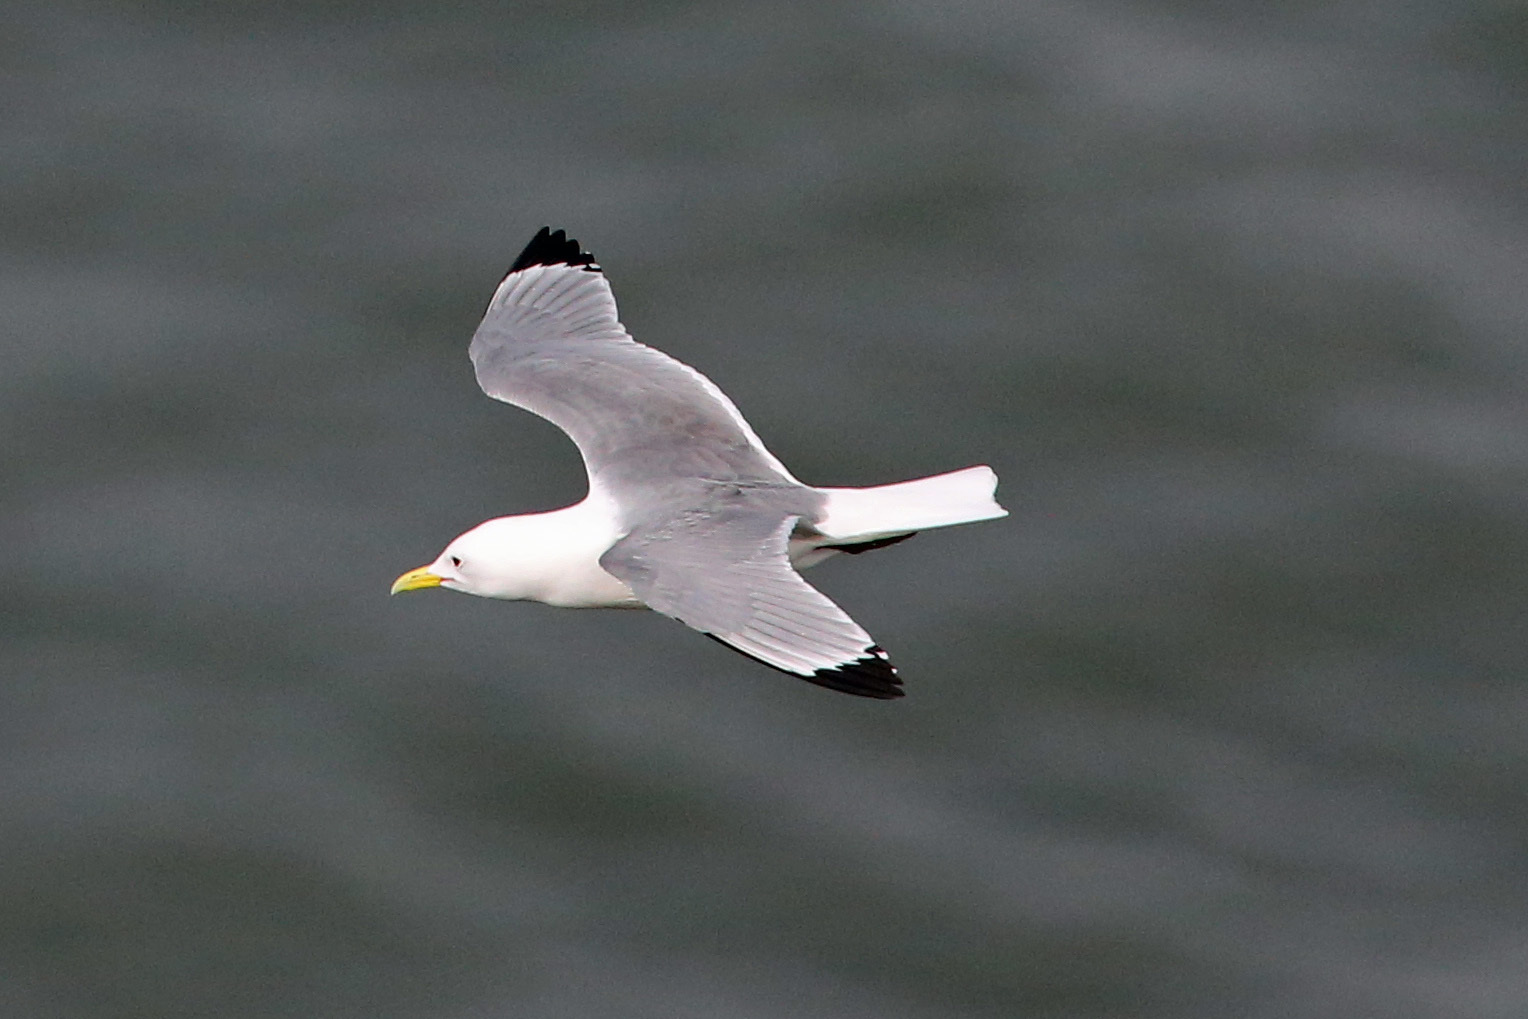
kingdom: Animalia
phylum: Chordata
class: Aves
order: Charadriiformes
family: Laridae
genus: Rissa
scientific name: Rissa tridactyla
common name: Black-legged kittiwake
